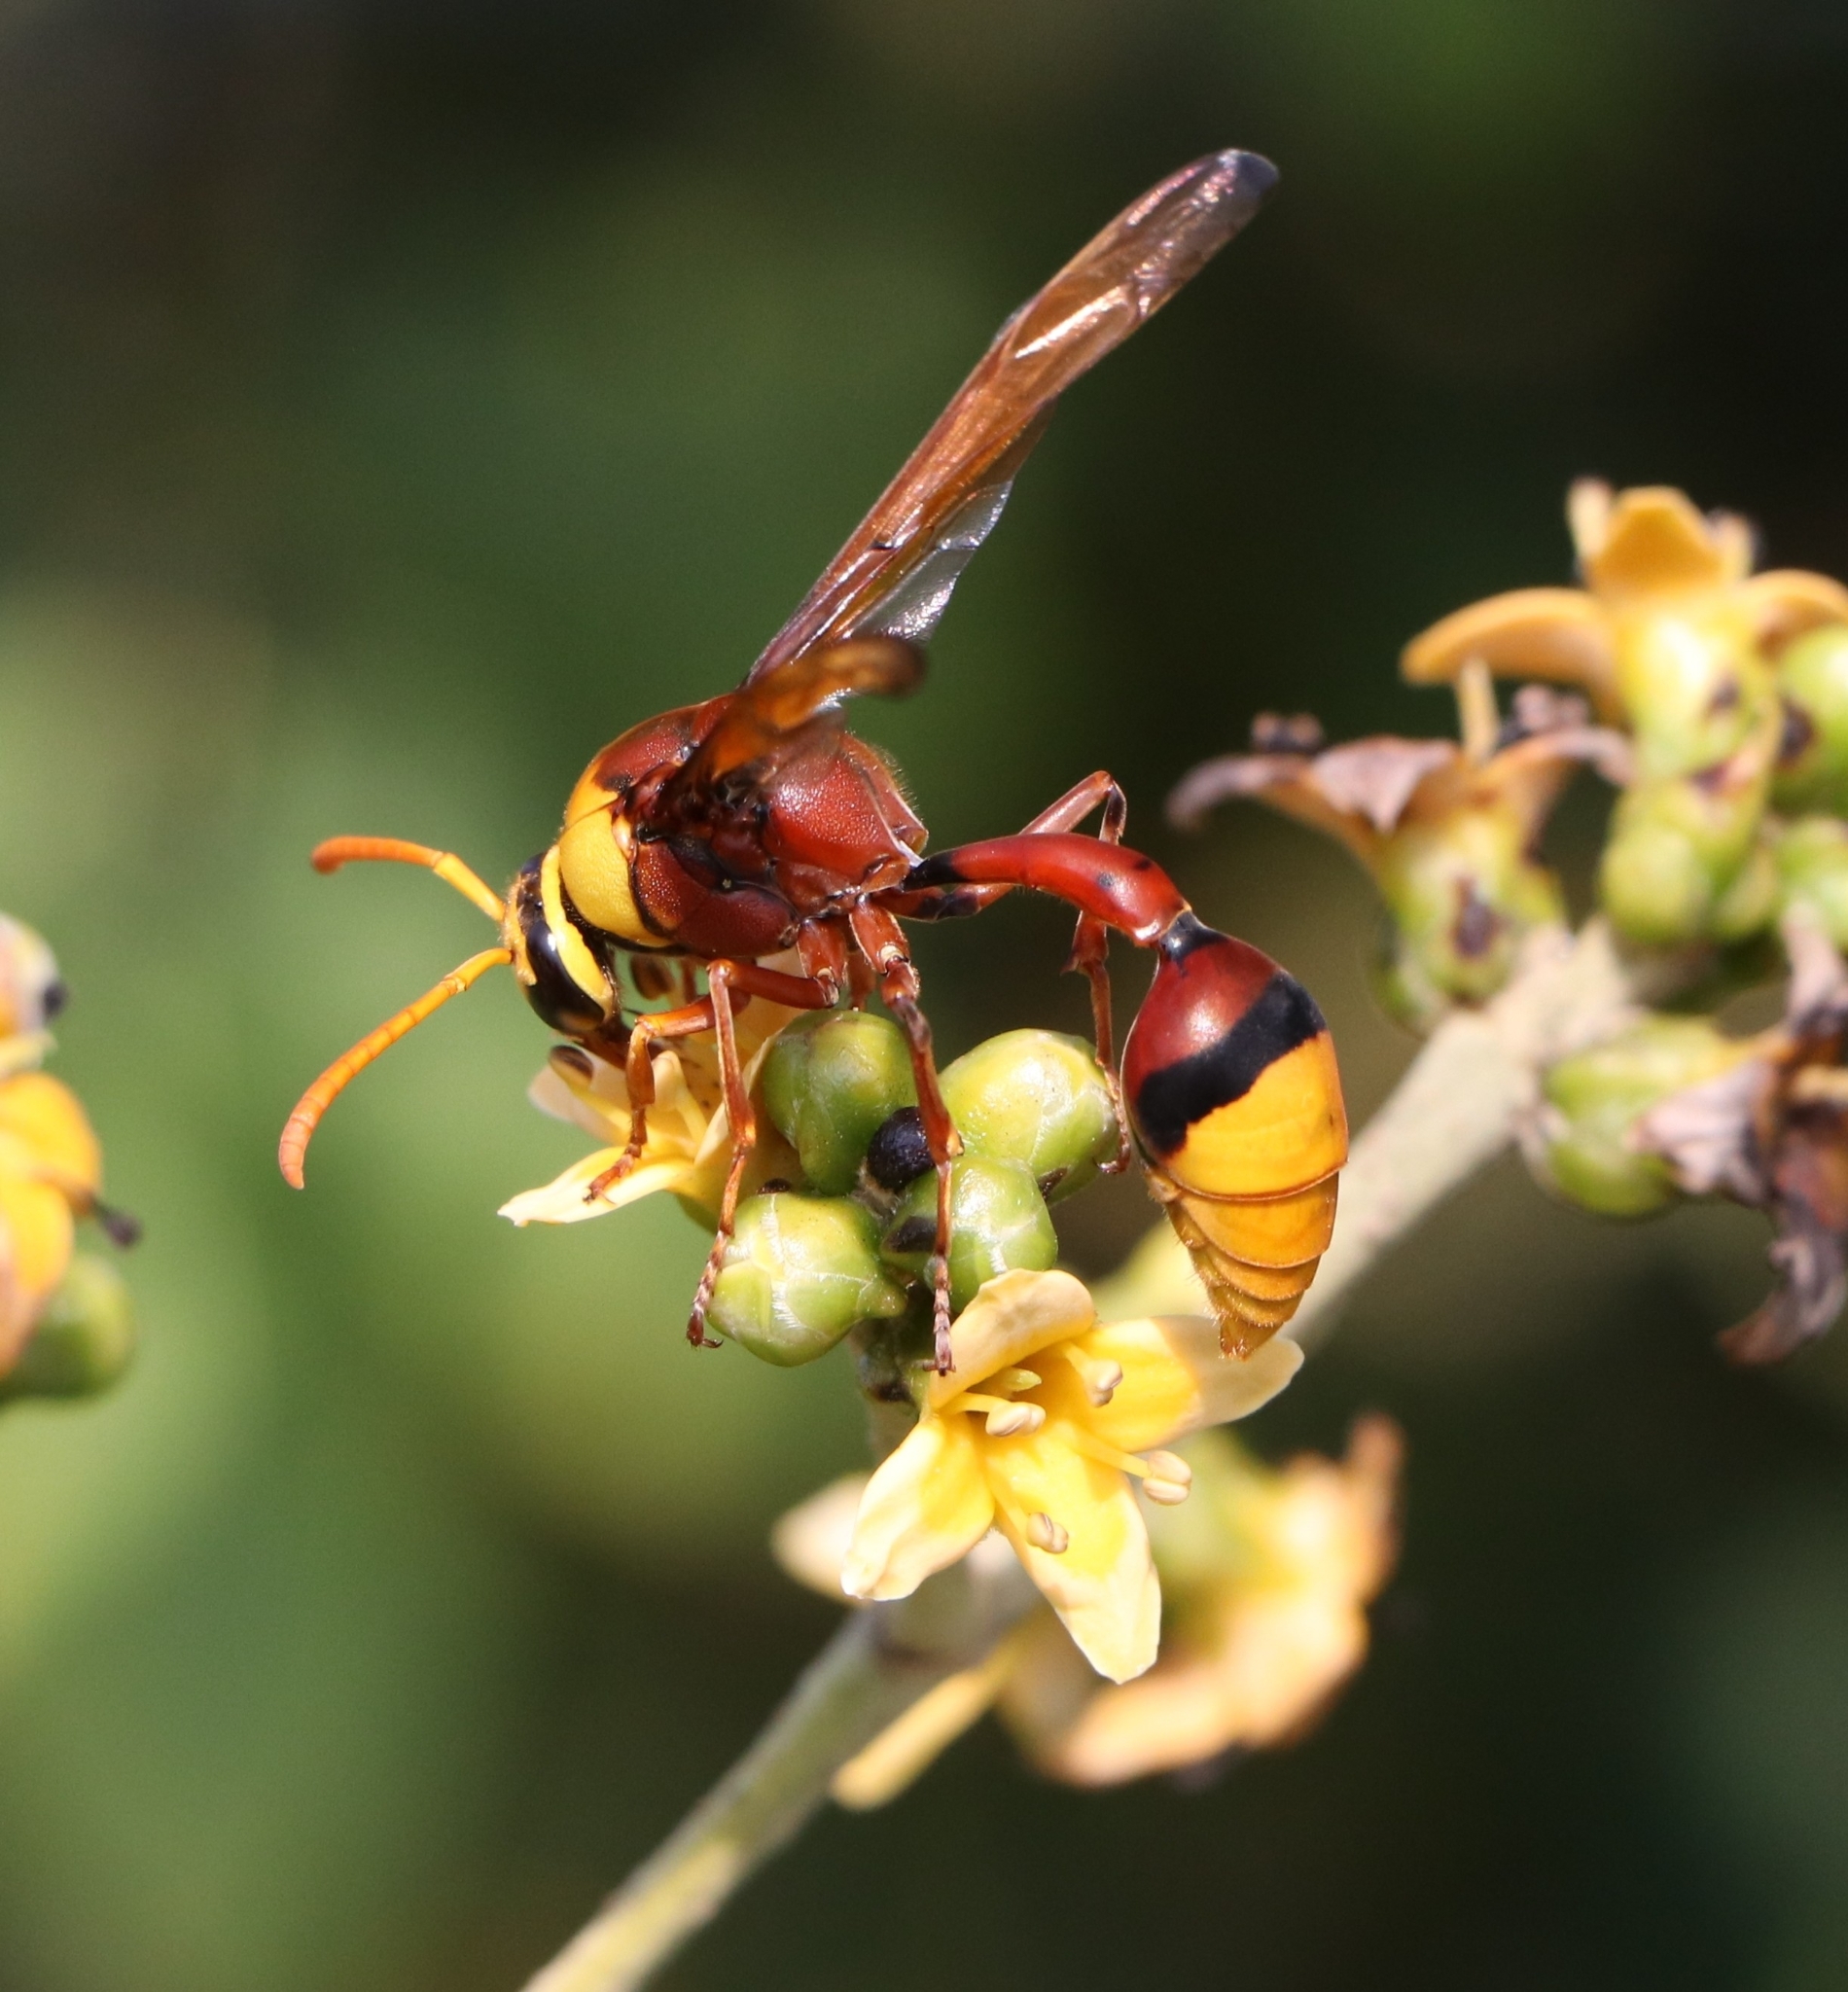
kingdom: Animalia
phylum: Arthropoda
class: Insecta
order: Hymenoptera
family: Eumenidae
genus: Delta
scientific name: Delta pyriforme
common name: Wasp
